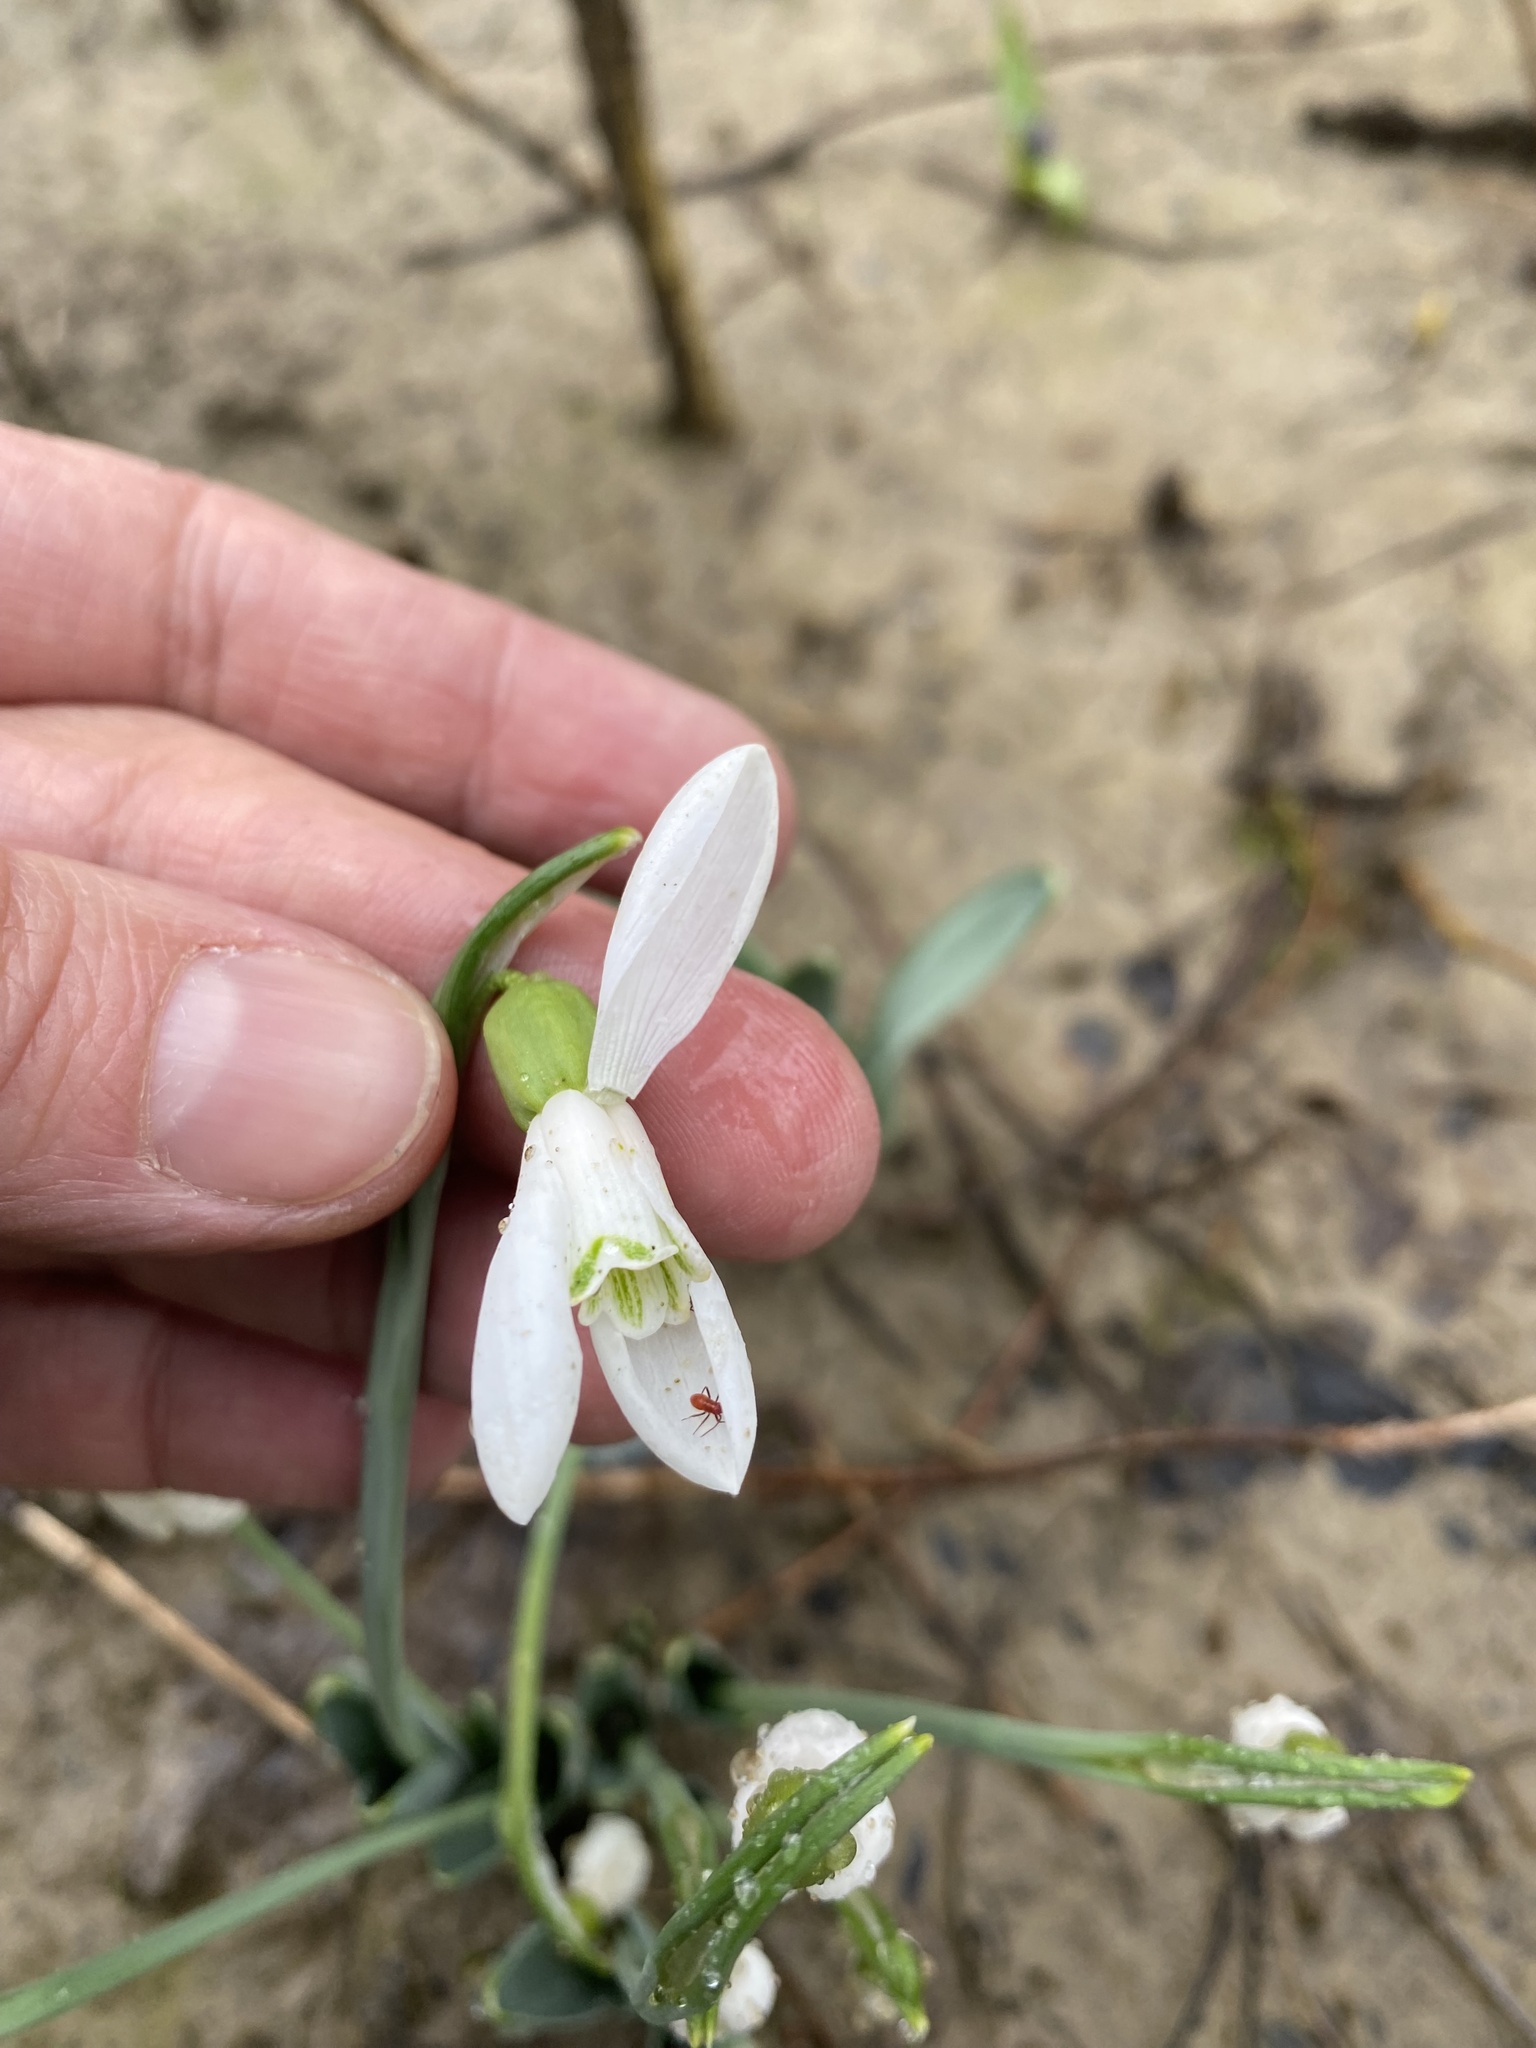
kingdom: Plantae
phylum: Tracheophyta
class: Liliopsida
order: Asparagales
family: Amaryllidaceae
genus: Galanthus
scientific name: Galanthus alpinus
